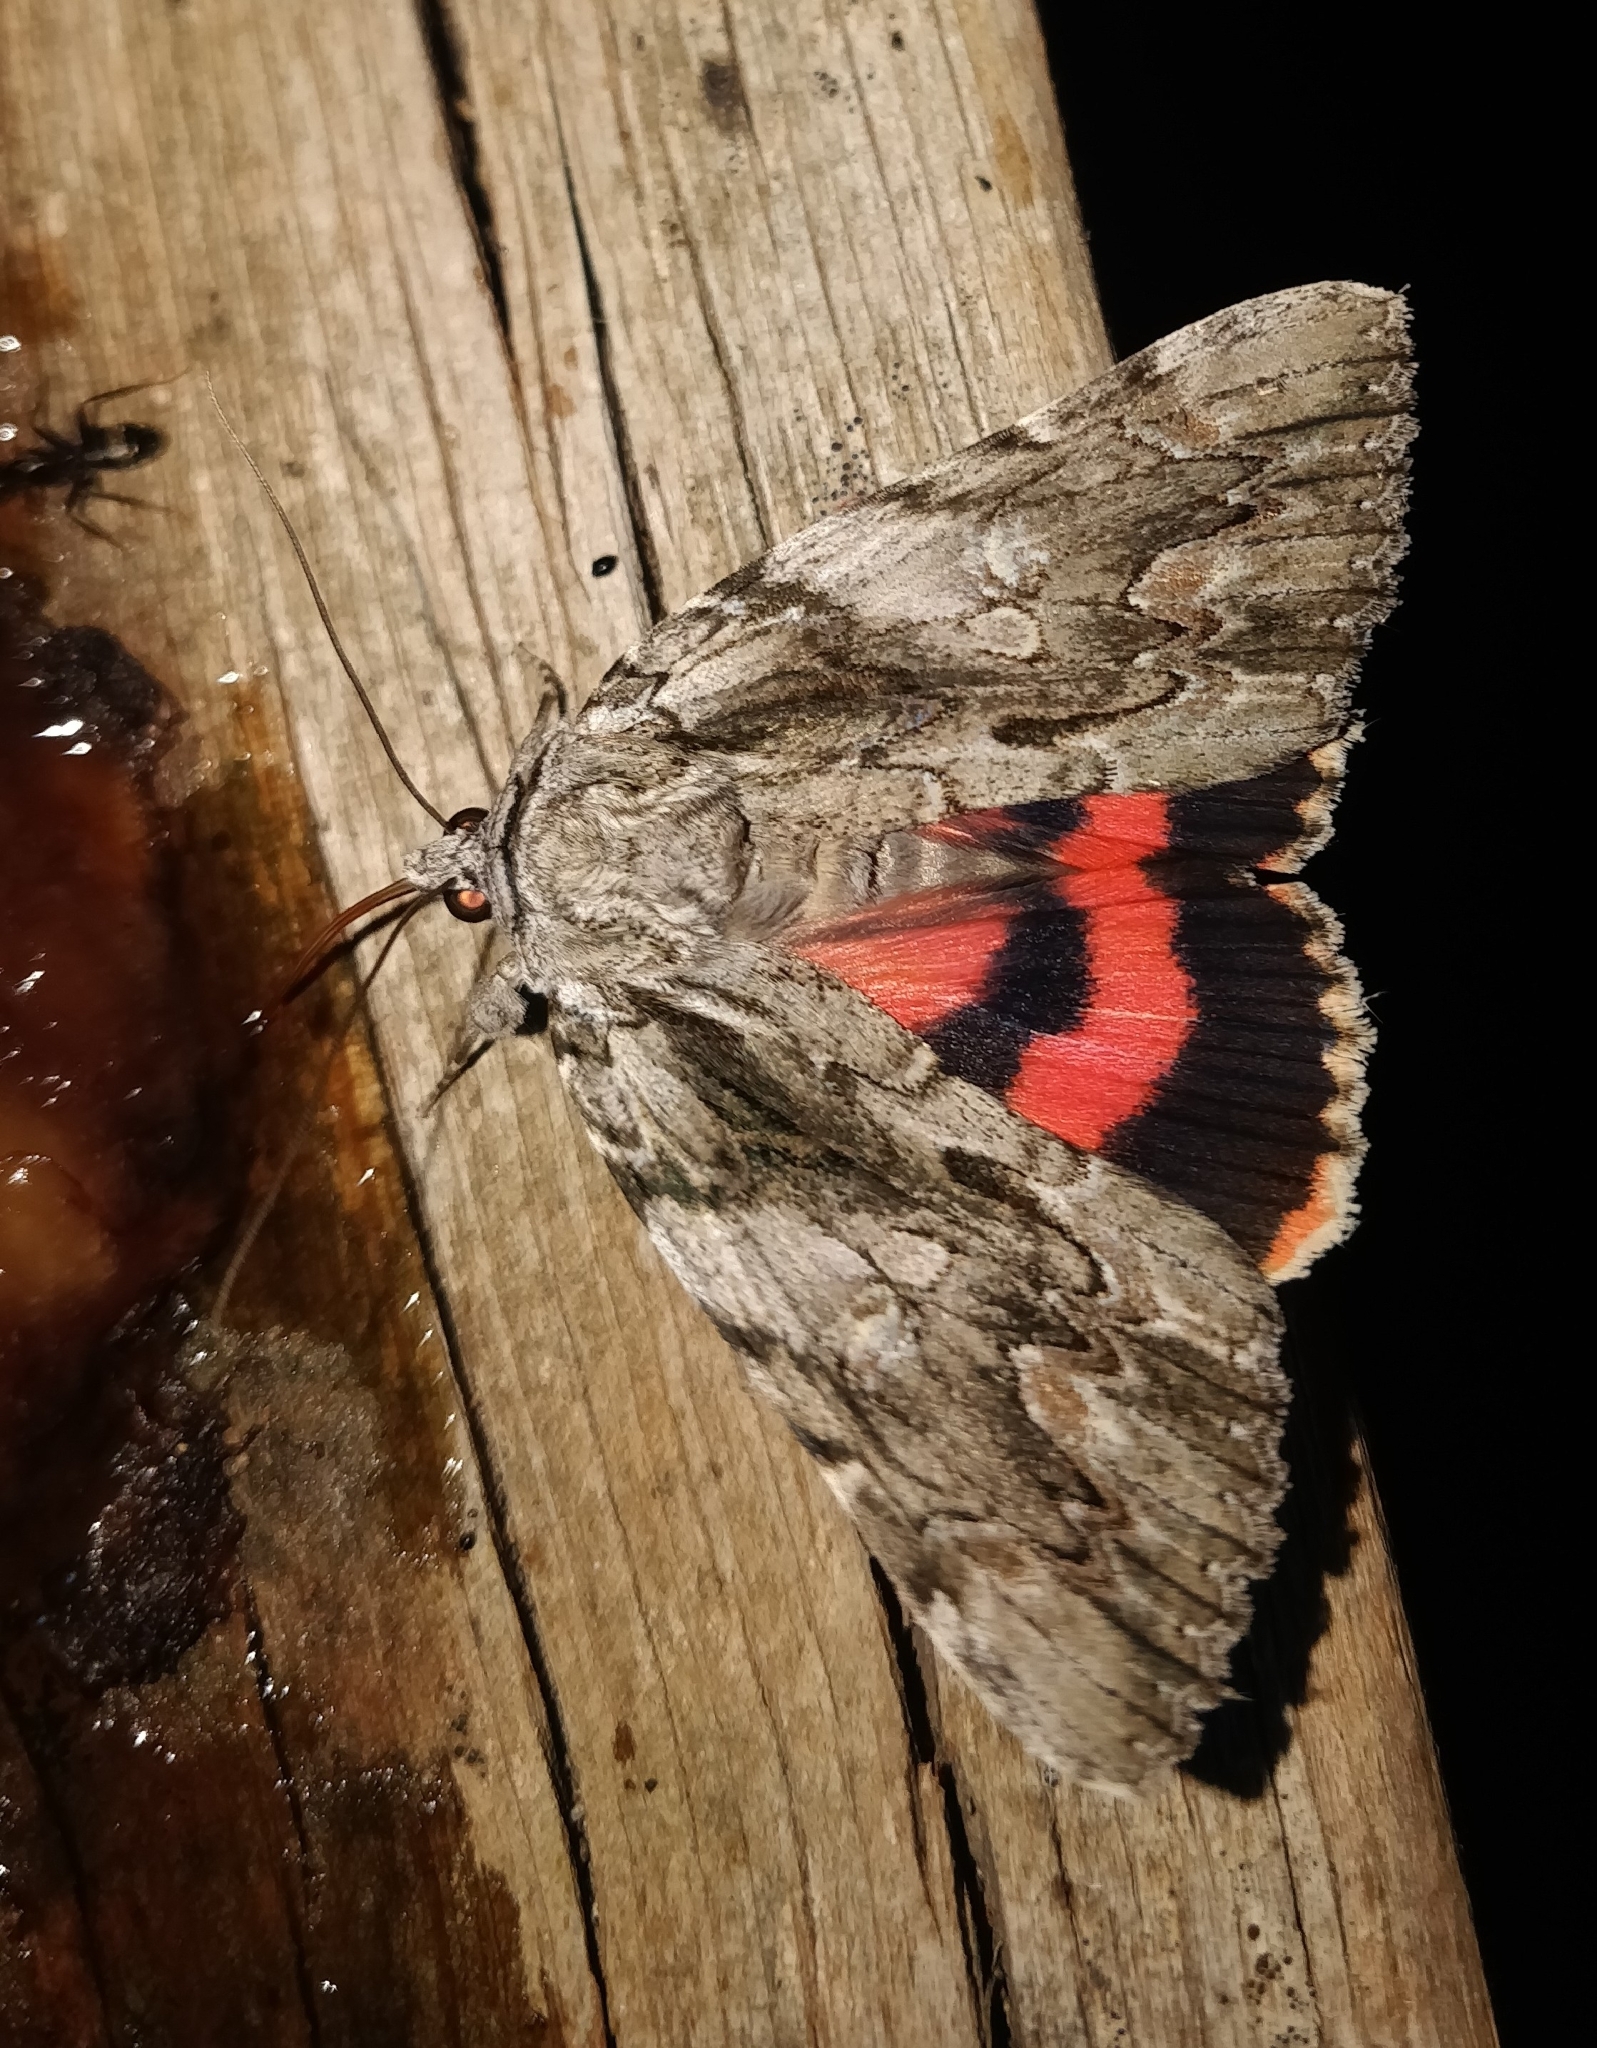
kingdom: Animalia
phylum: Arthropoda
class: Insecta
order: Lepidoptera
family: Erebidae
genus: Catocala
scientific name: Catocala coccinata
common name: Scarlet underwing
